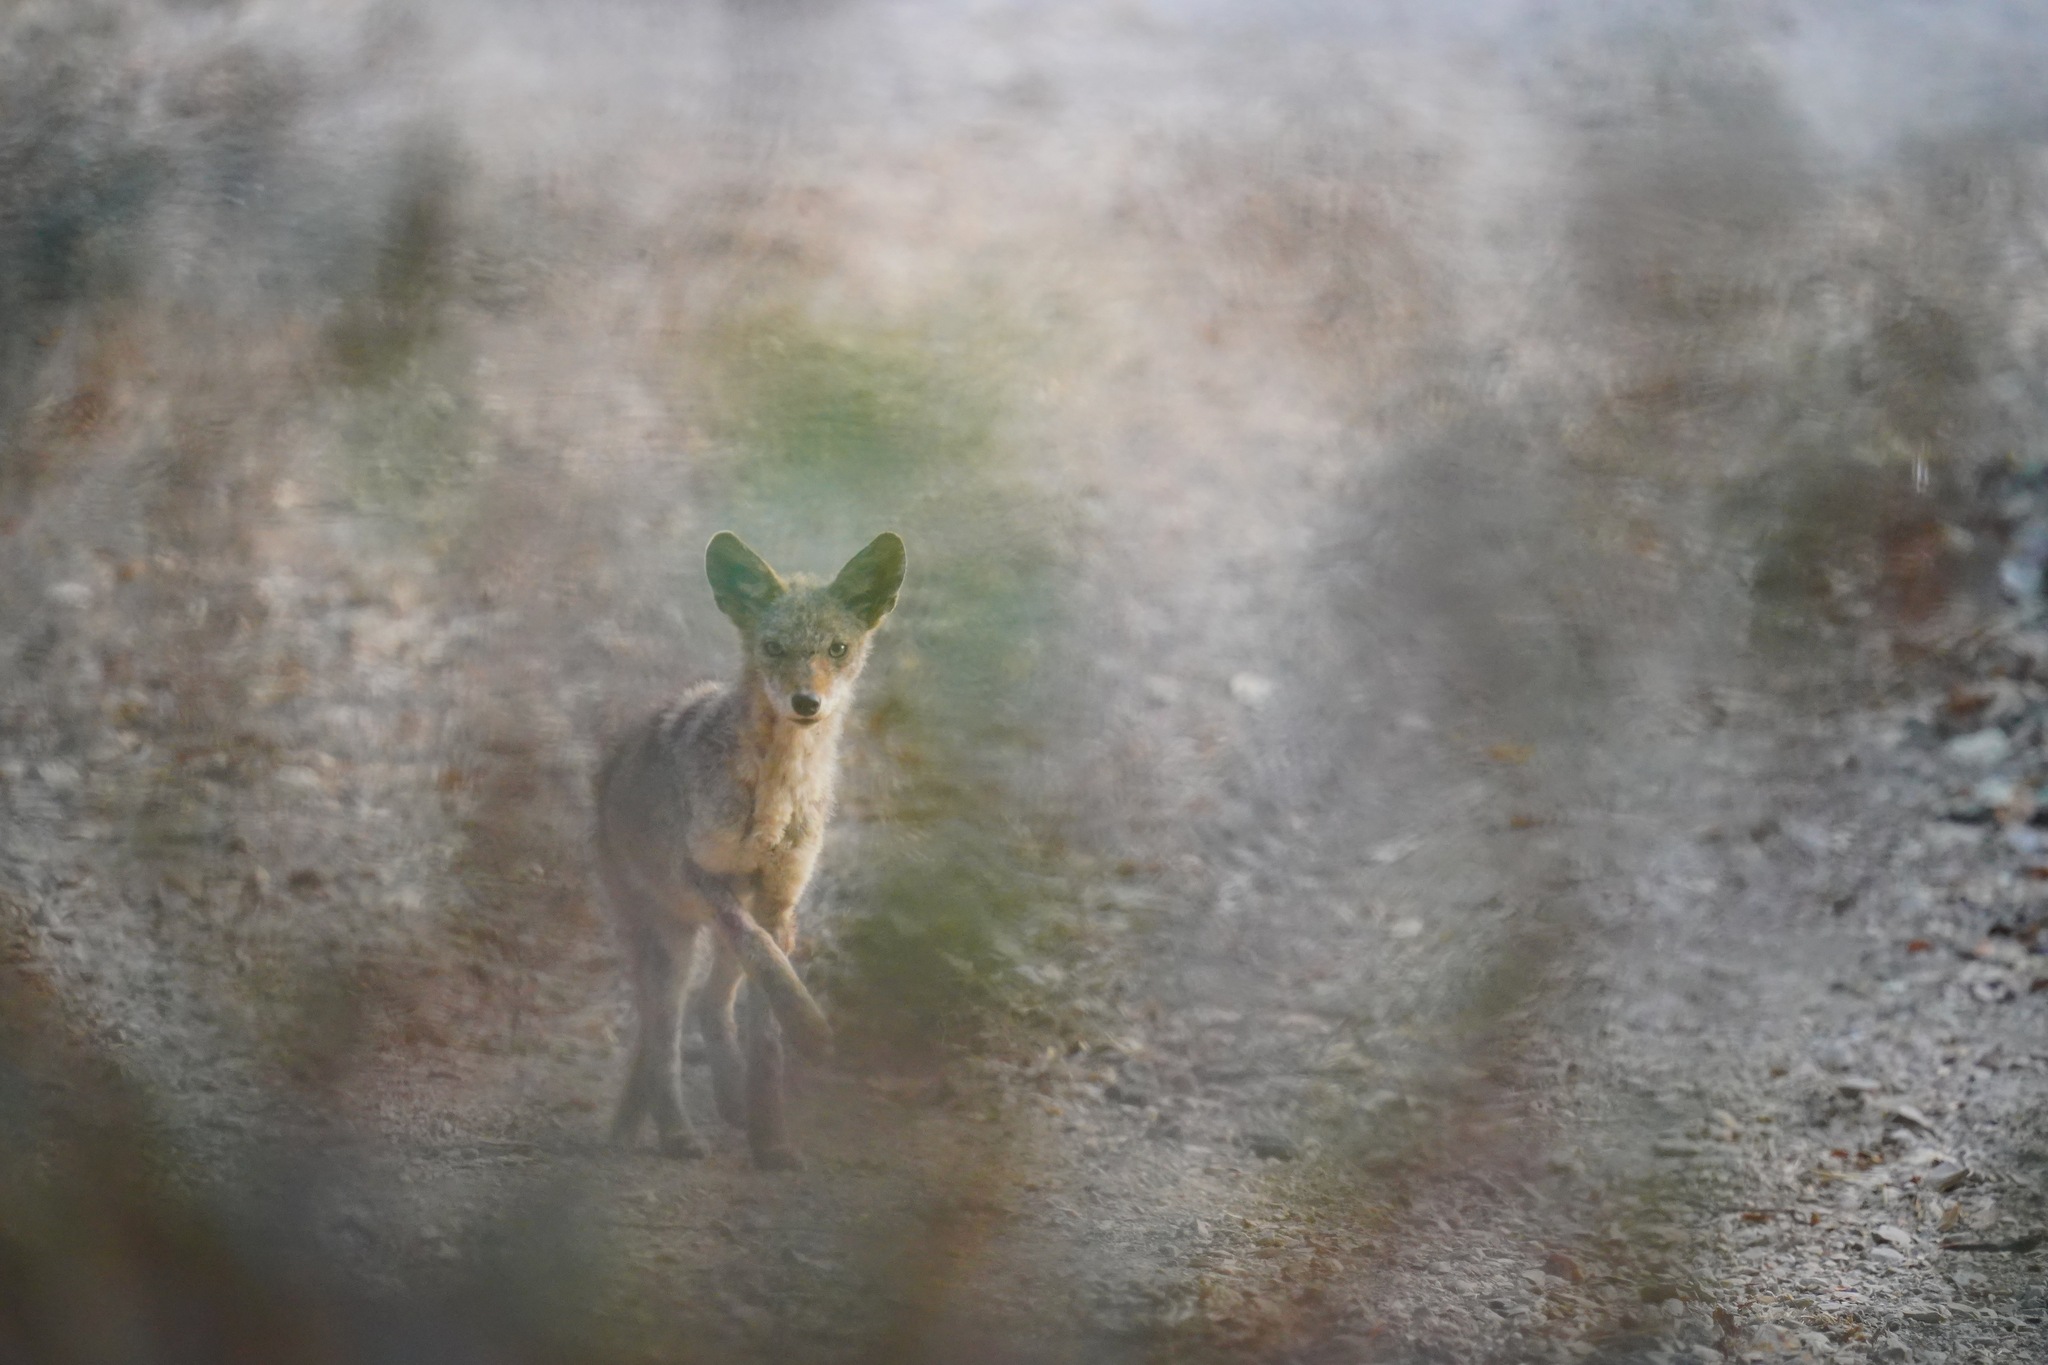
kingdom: Animalia
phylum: Chordata
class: Mammalia
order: Carnivora
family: Canidae
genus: Canis
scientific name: Canis latrans
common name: Coyote
